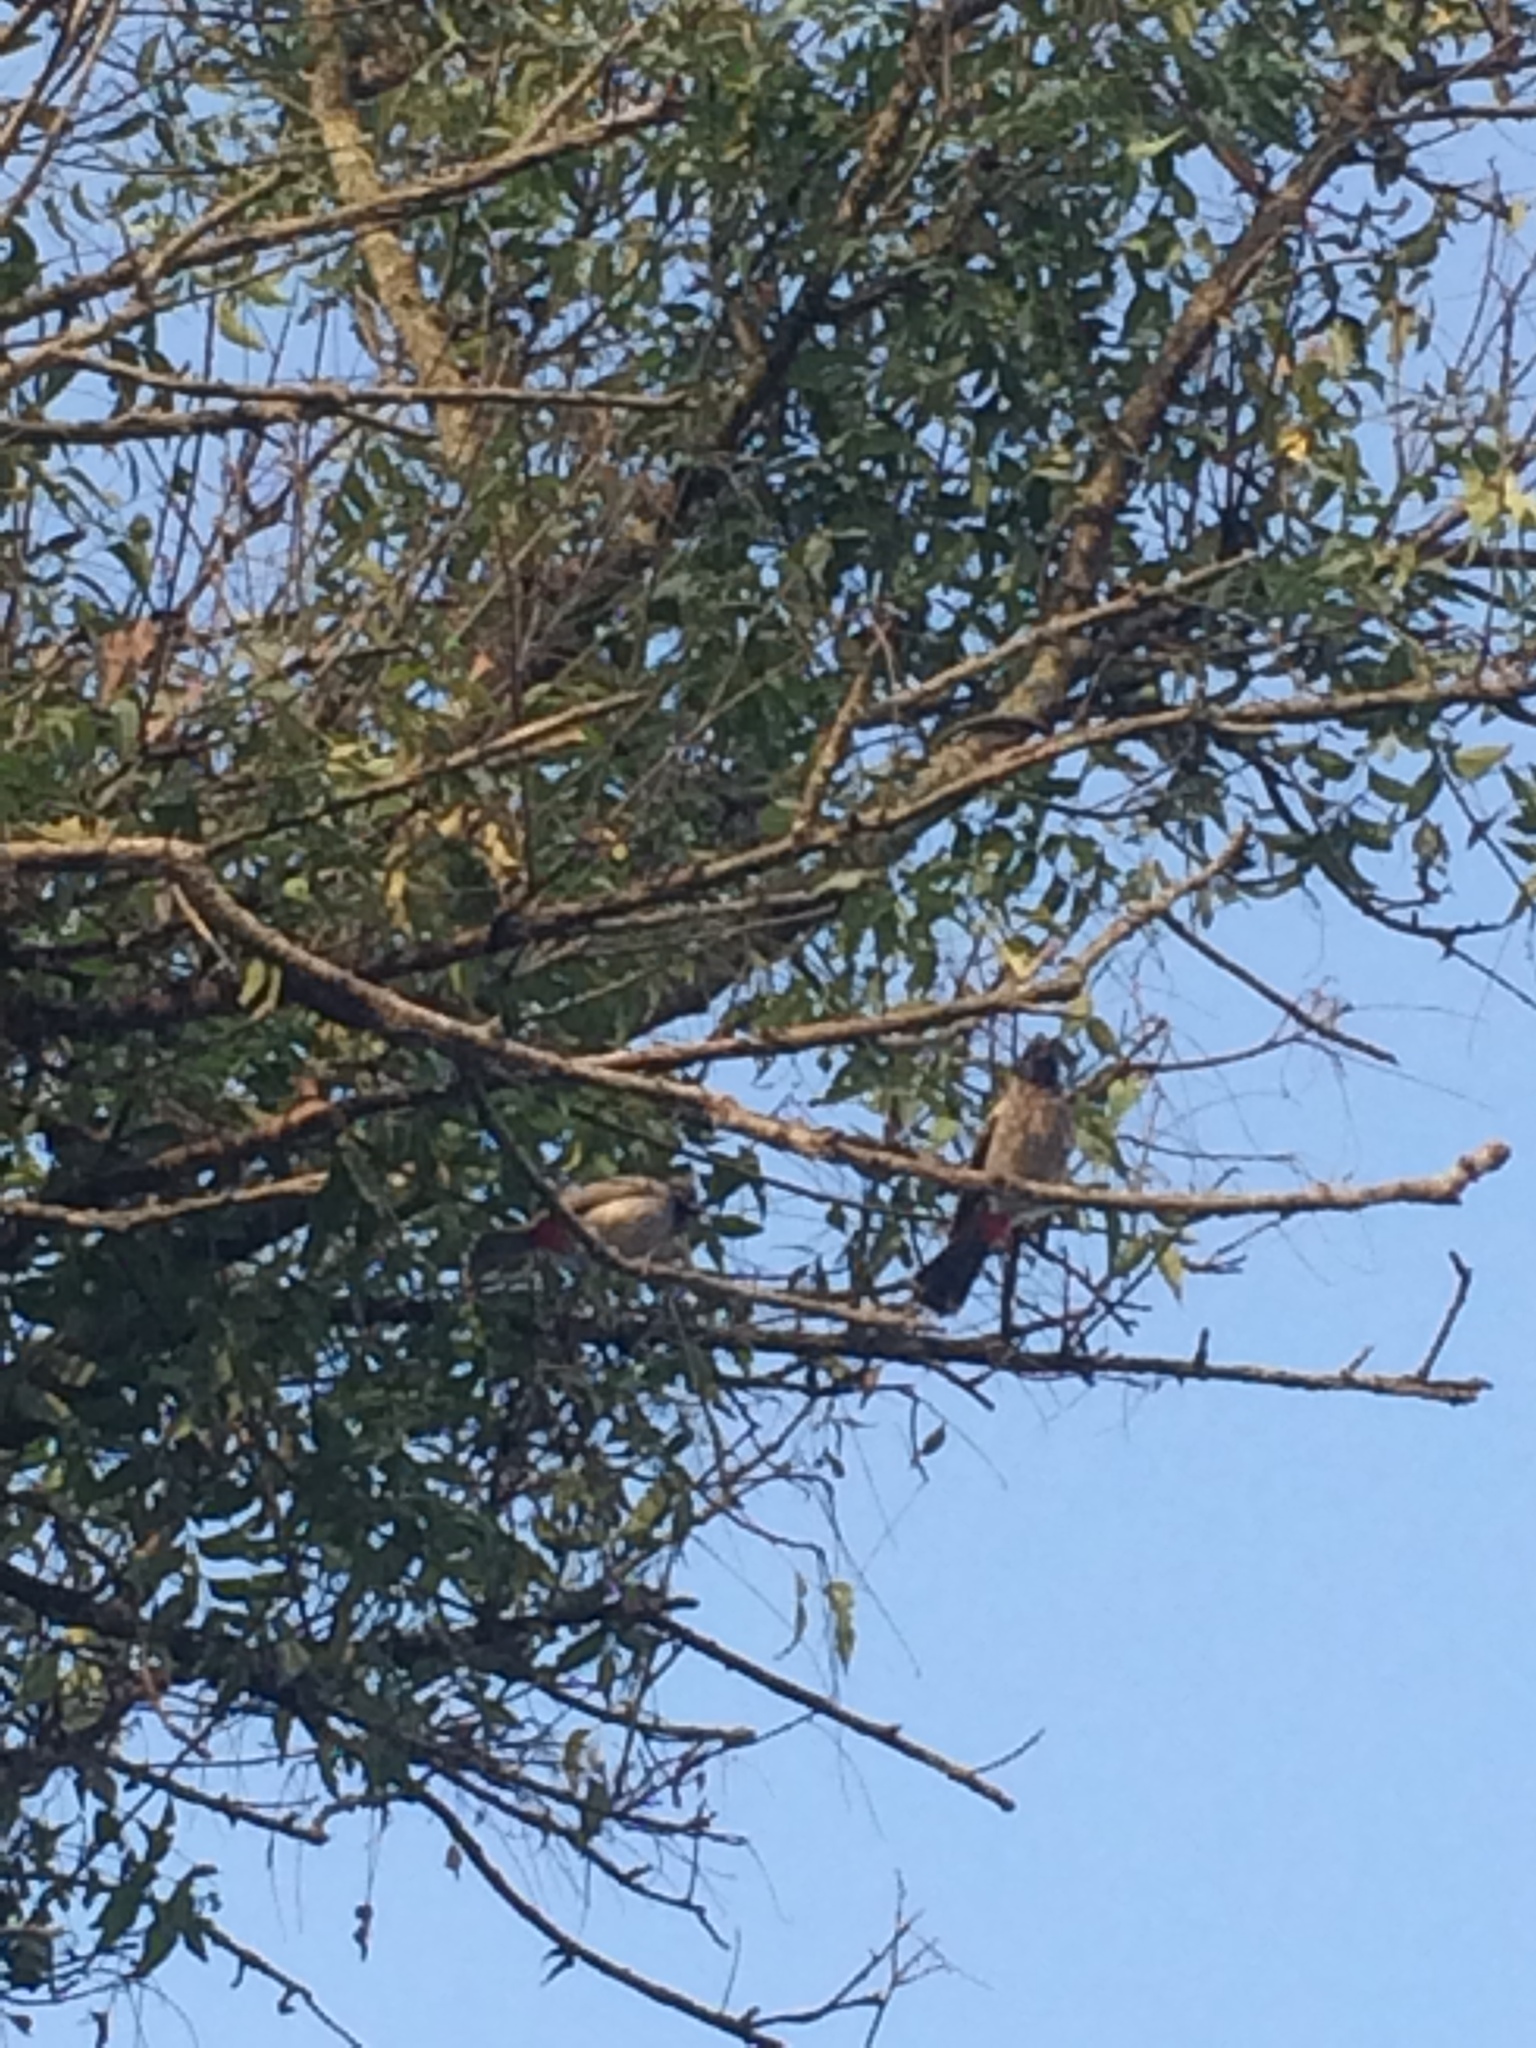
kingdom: Animalia
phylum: Chordata
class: Aves
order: Passeriformes
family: Pycnonotidae
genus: Pycnonotus
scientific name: Pycnonotus cafer
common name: Red-vented bulbul
